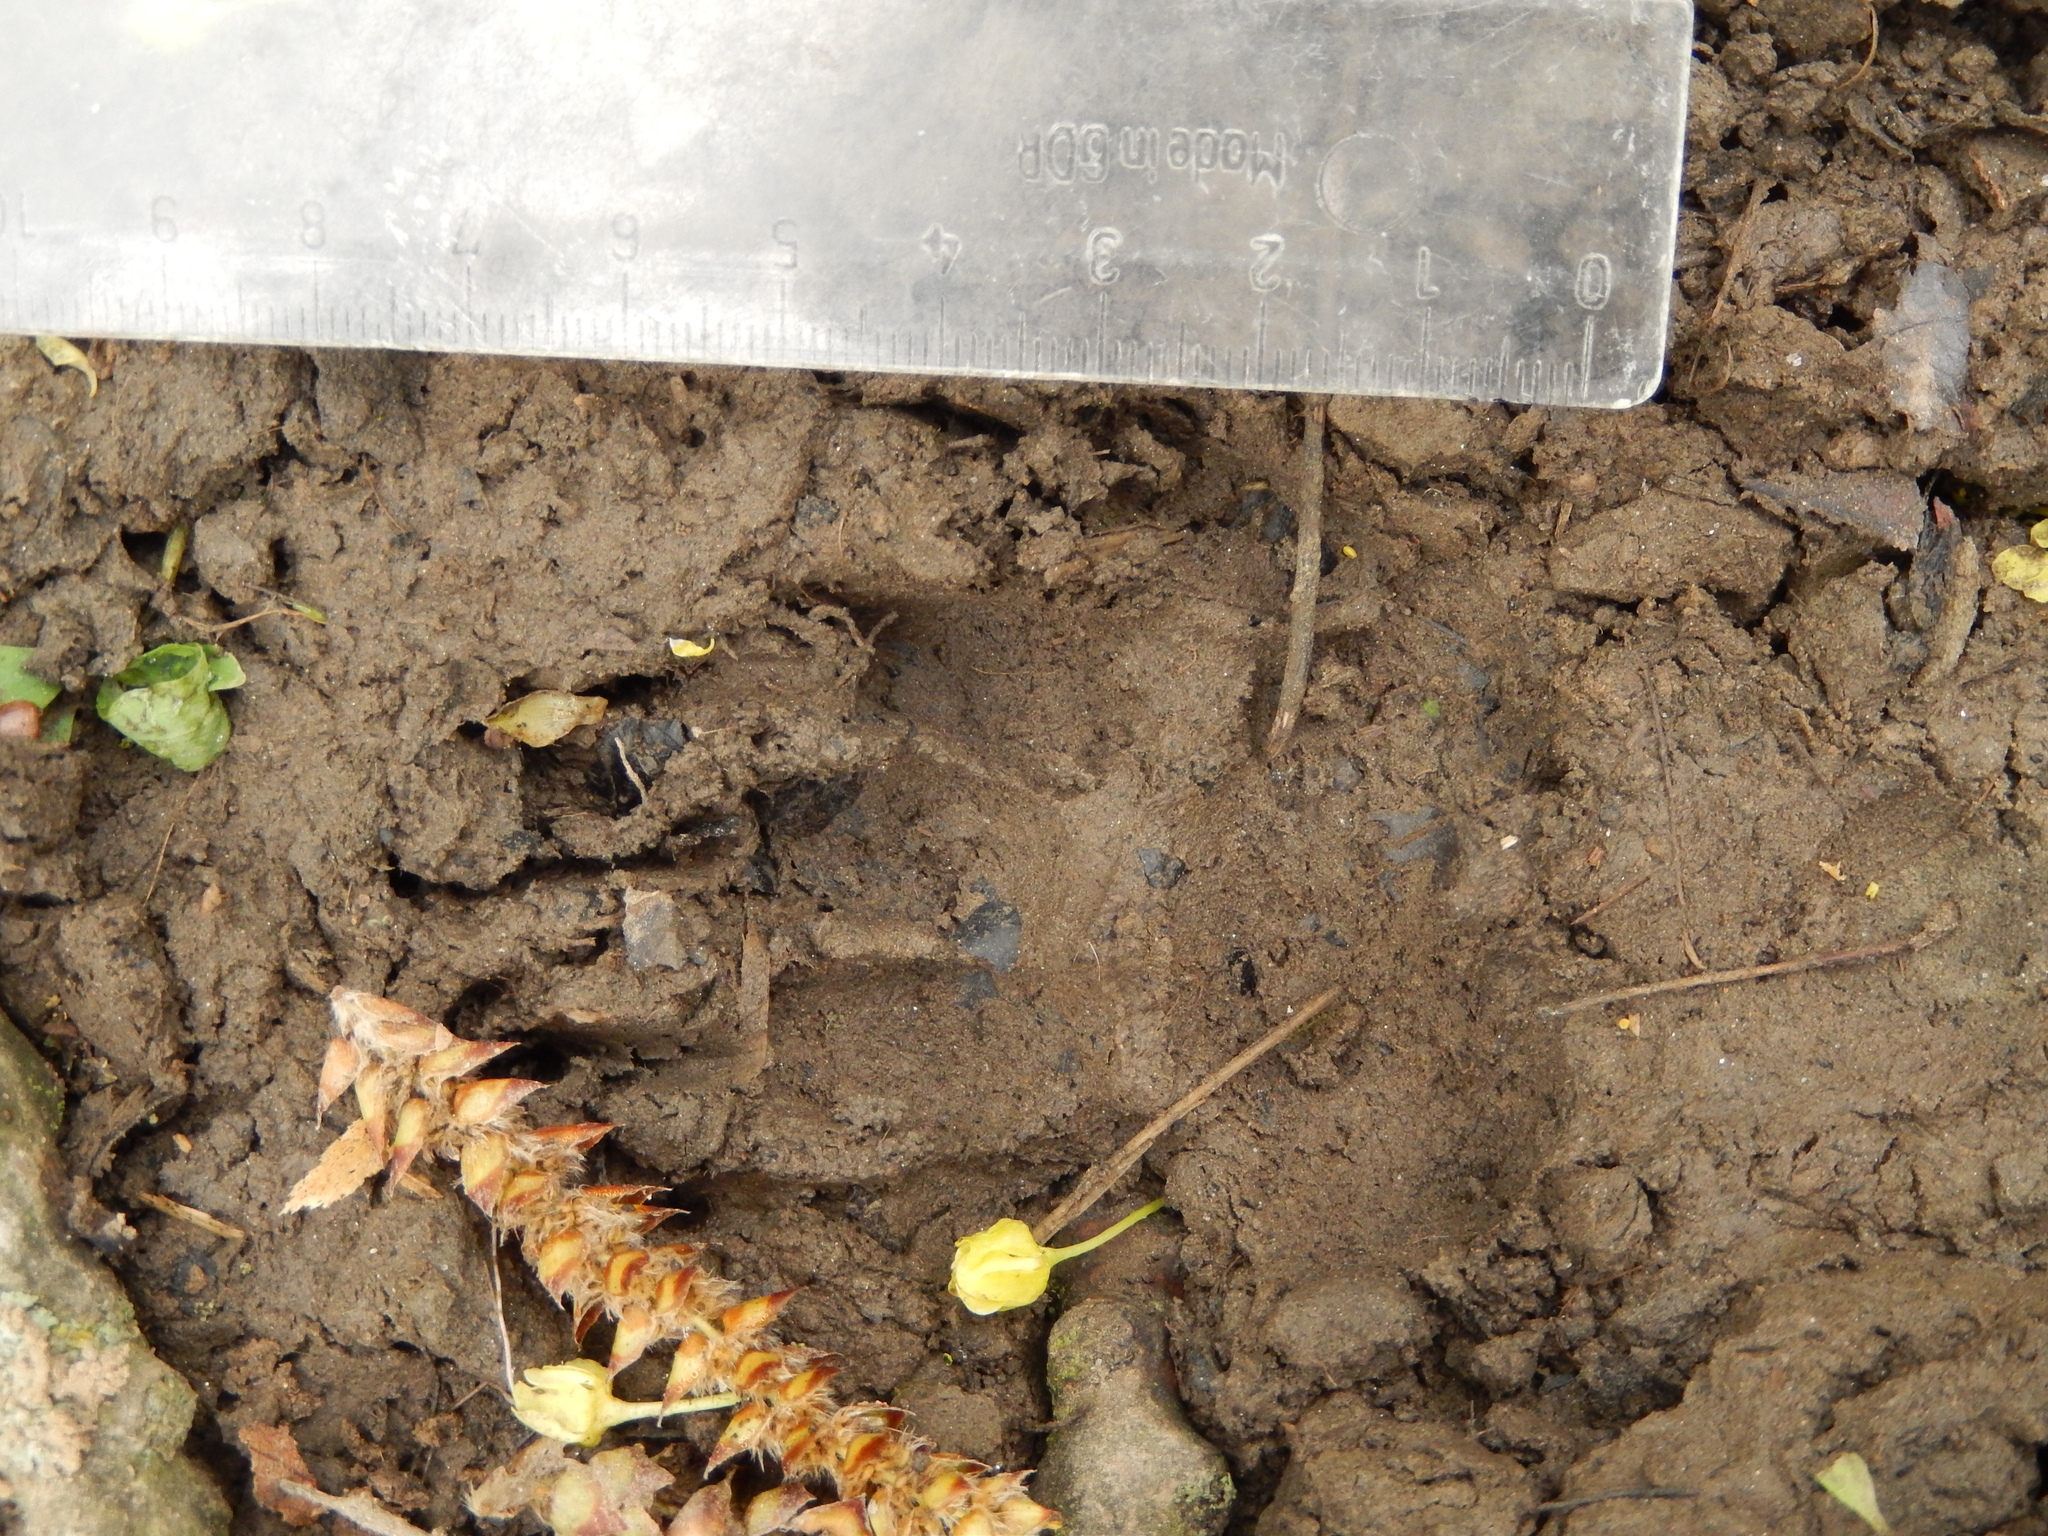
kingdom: Animalia
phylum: Chordata
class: Mammalia
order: Carnivora
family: Mustelidae
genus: Meles
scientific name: Meles meles
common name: Eurasian badger
